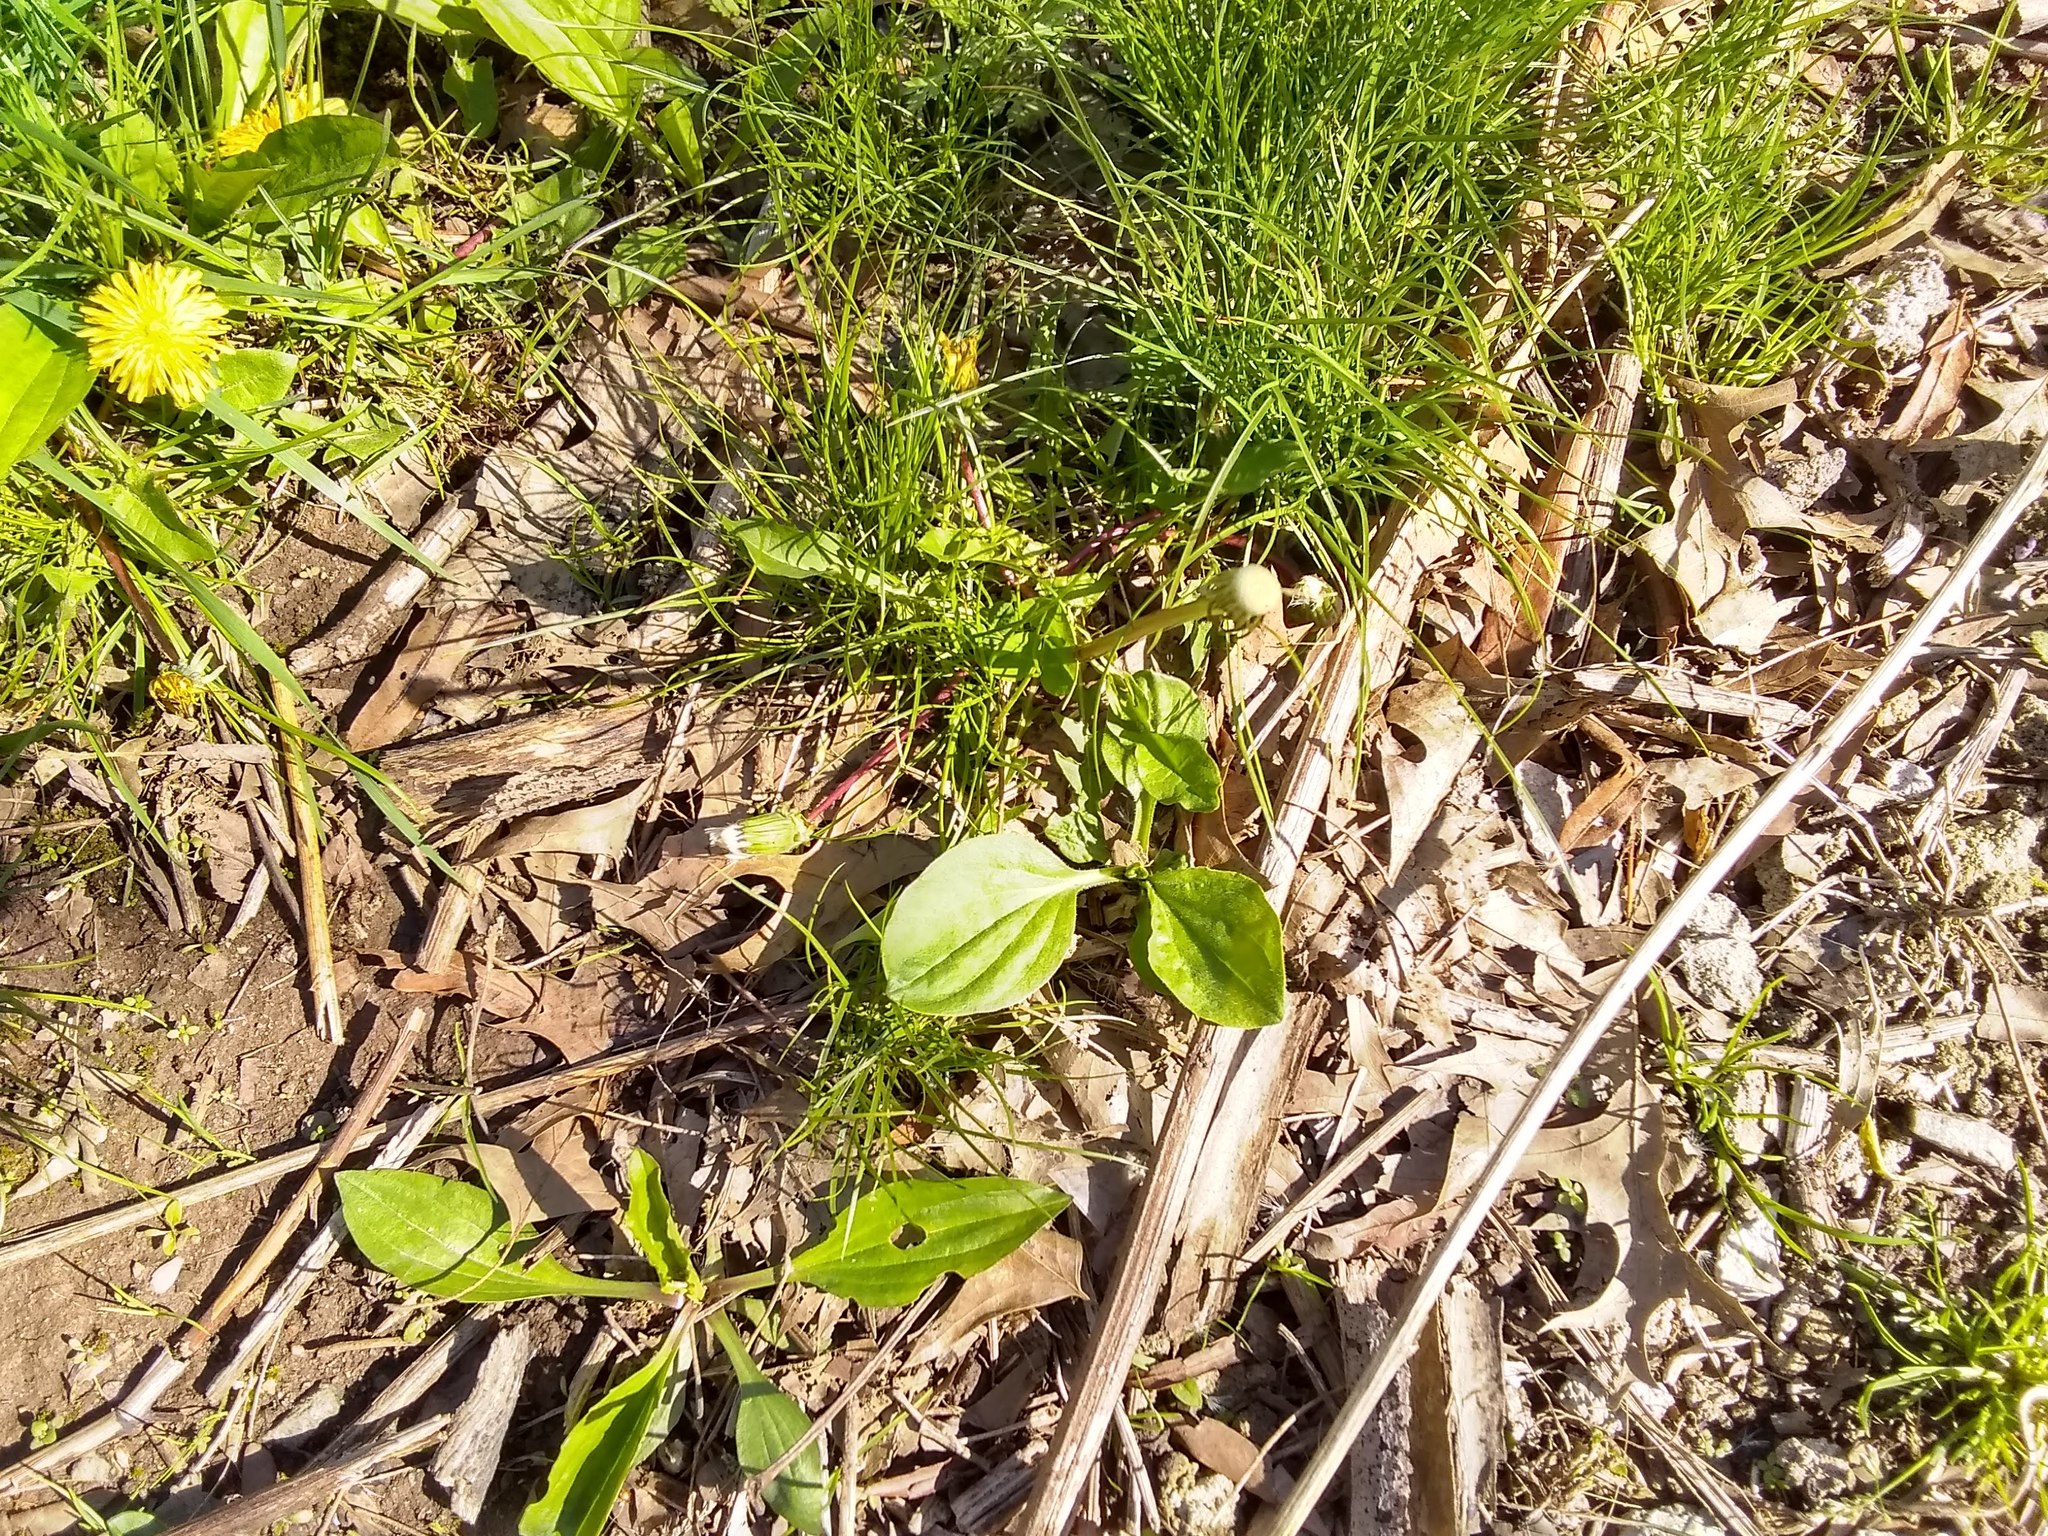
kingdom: Plantae
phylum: Tracheophyta
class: Magnoliopsida
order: Lamiales
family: Plantaginaceae
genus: Plantago
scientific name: Plantago rugelii
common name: American plantain
